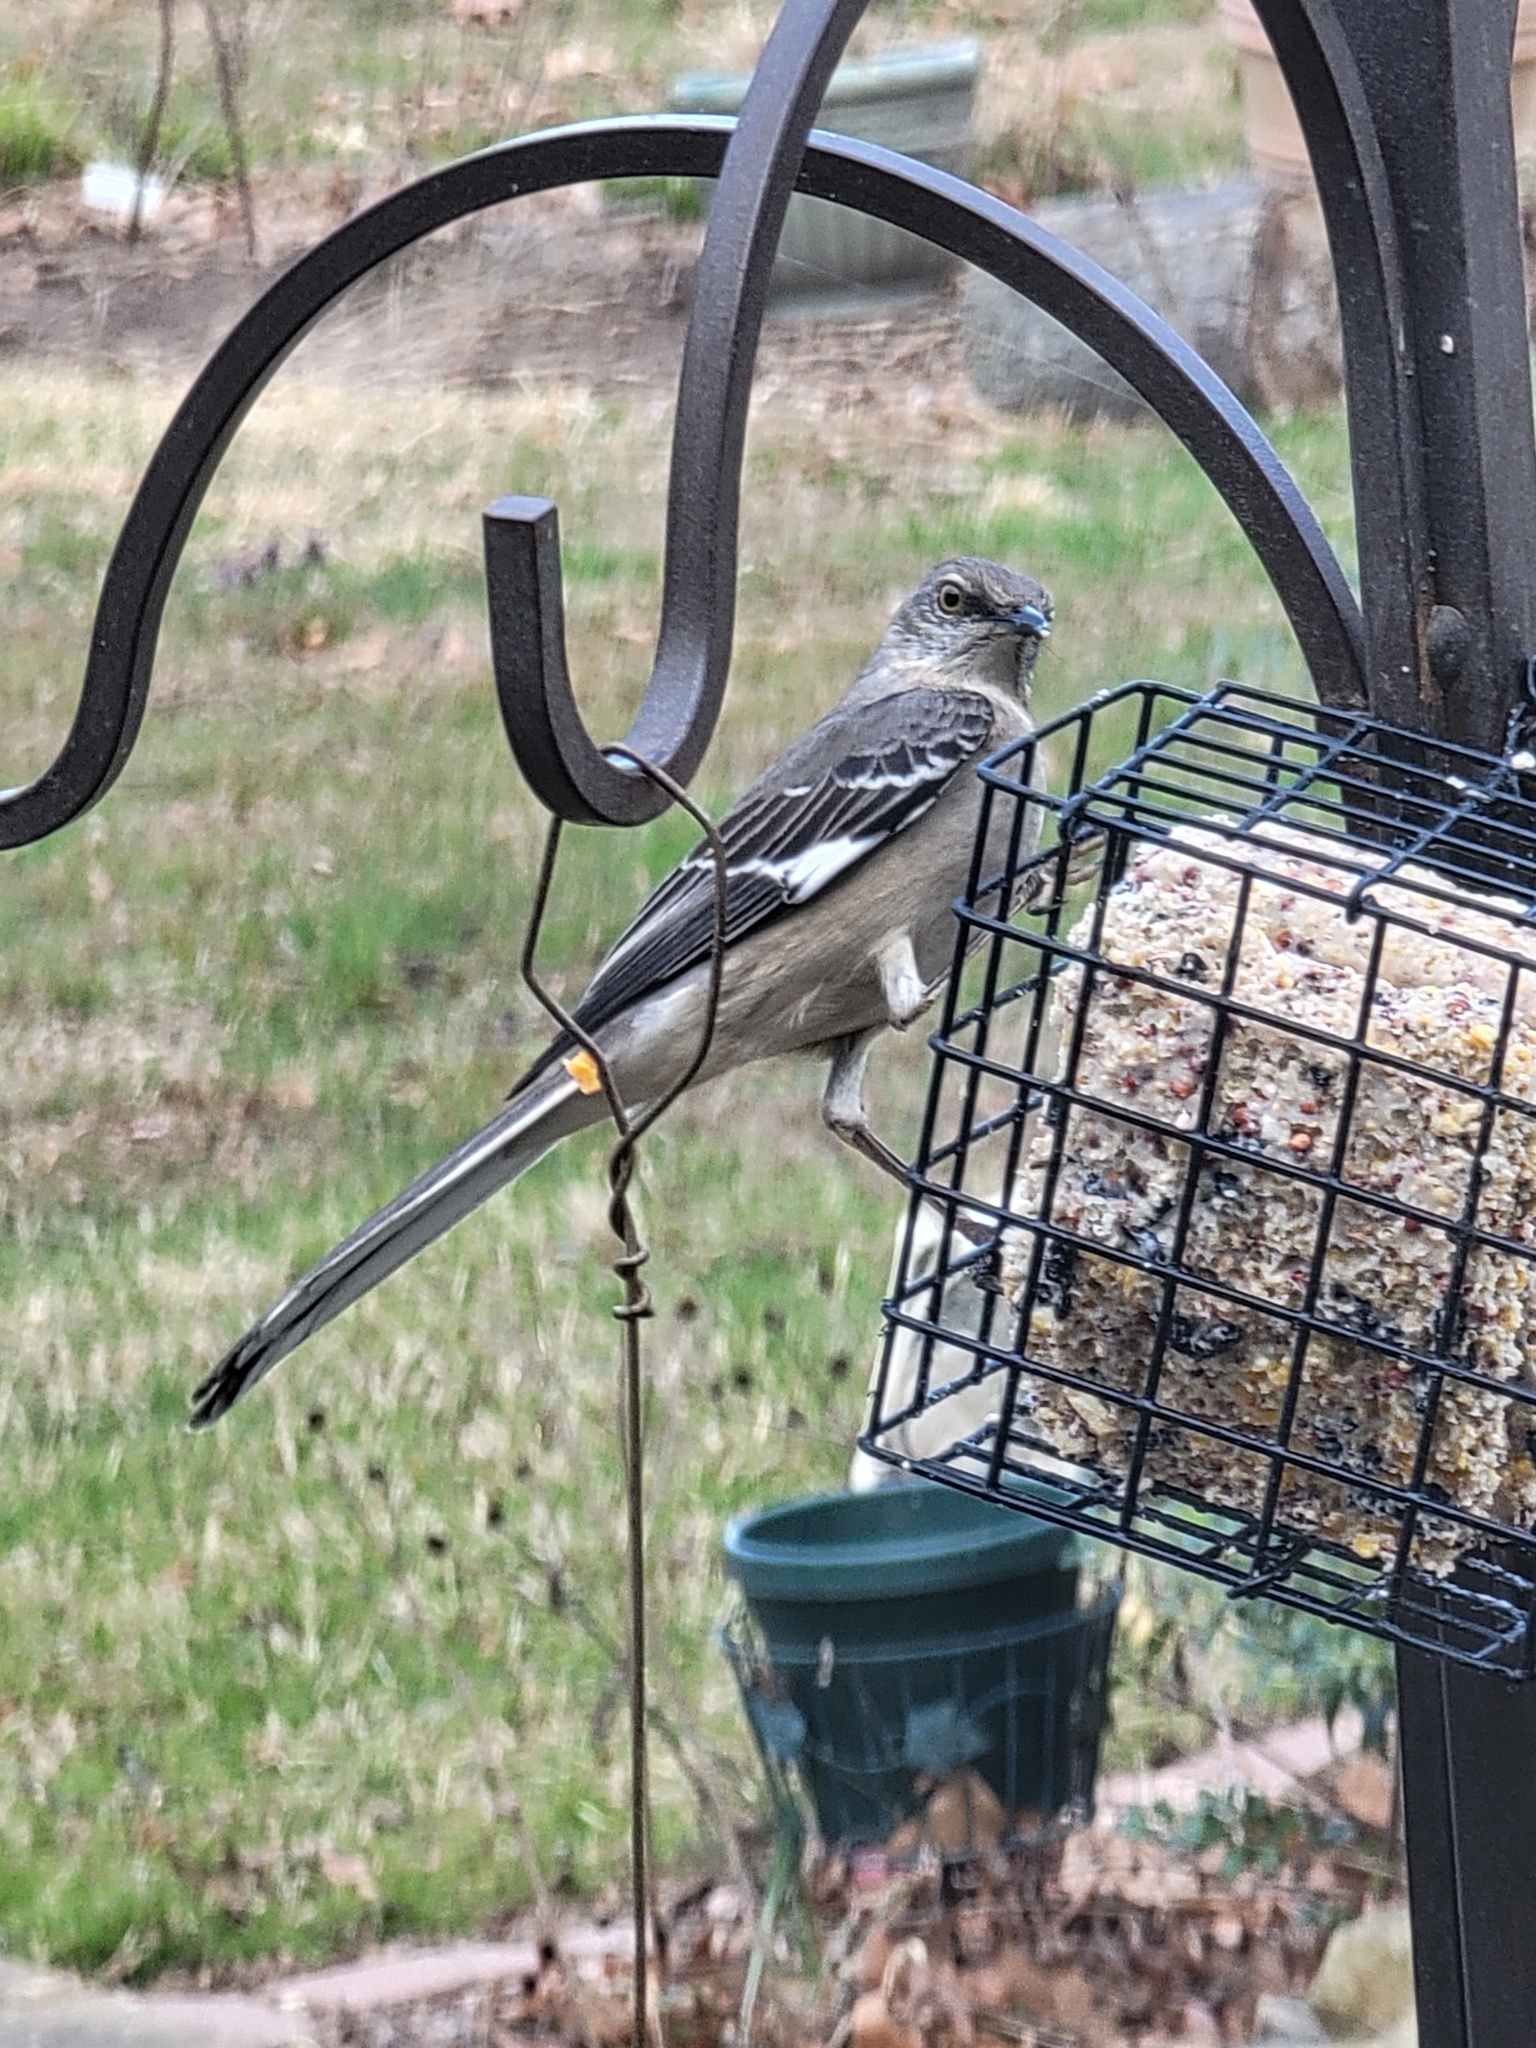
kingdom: Animalia
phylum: Chordata
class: Aves
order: Passeriformes
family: Mimidae
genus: Mimus
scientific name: Mimus polyglottos
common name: Northern mockingbird
